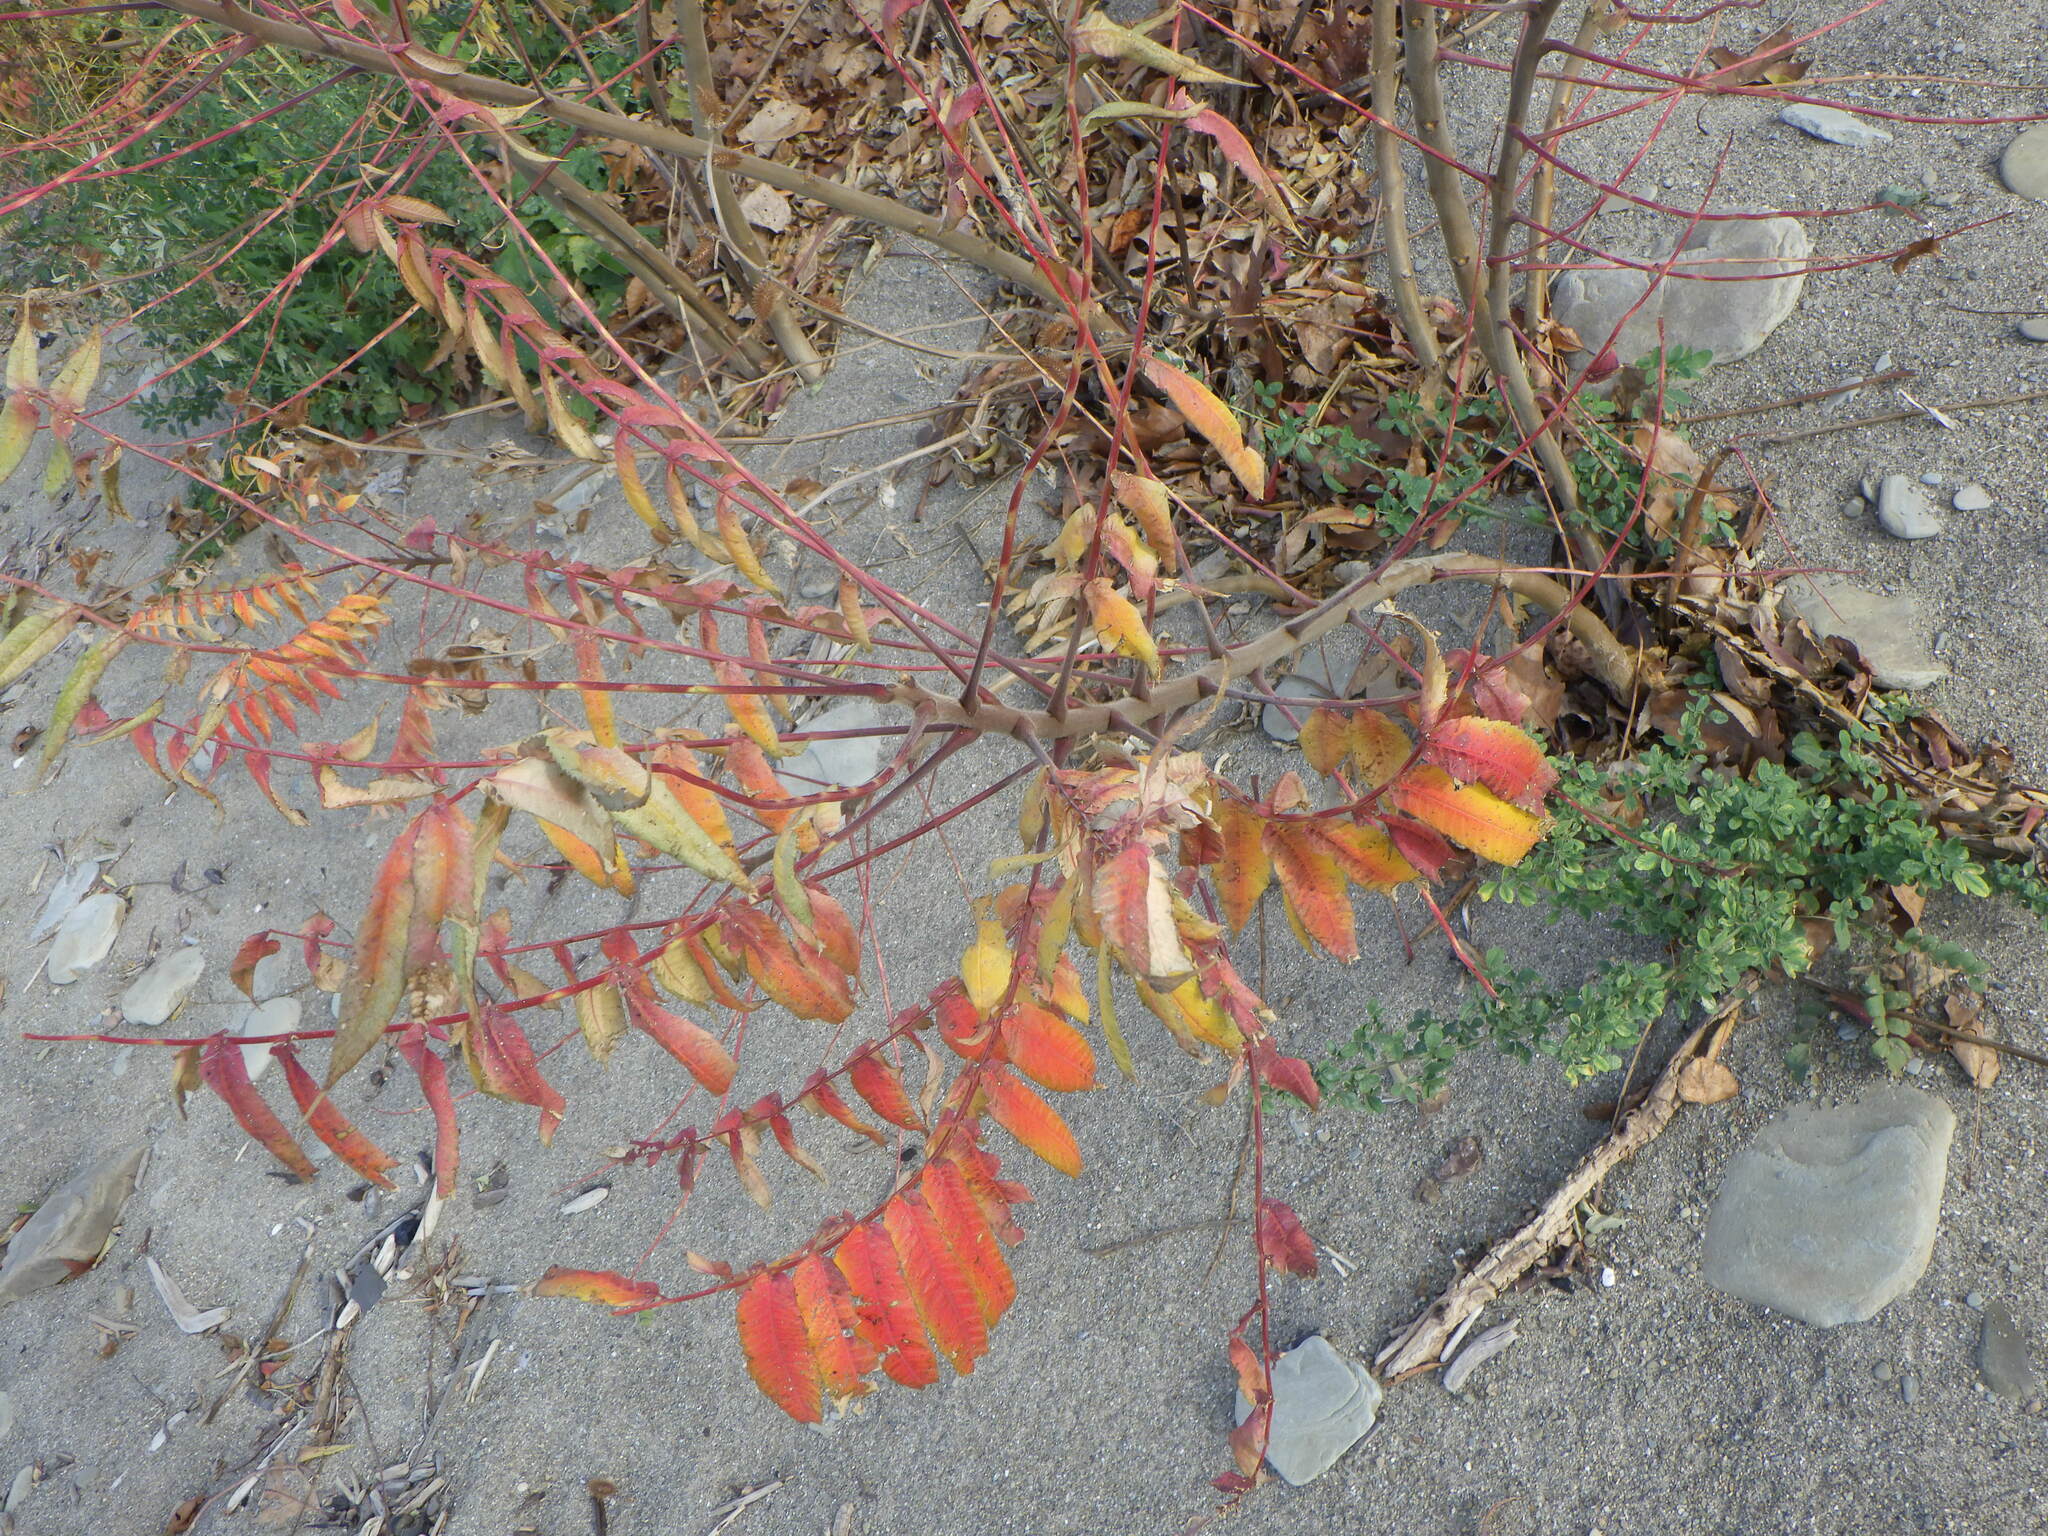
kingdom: Plantae
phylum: Tracheophyta
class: Magnoliopsida
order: Sapindales
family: Anacardiaceae
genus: Rhus
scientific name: Rhus typhina
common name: Staghorn sumac
